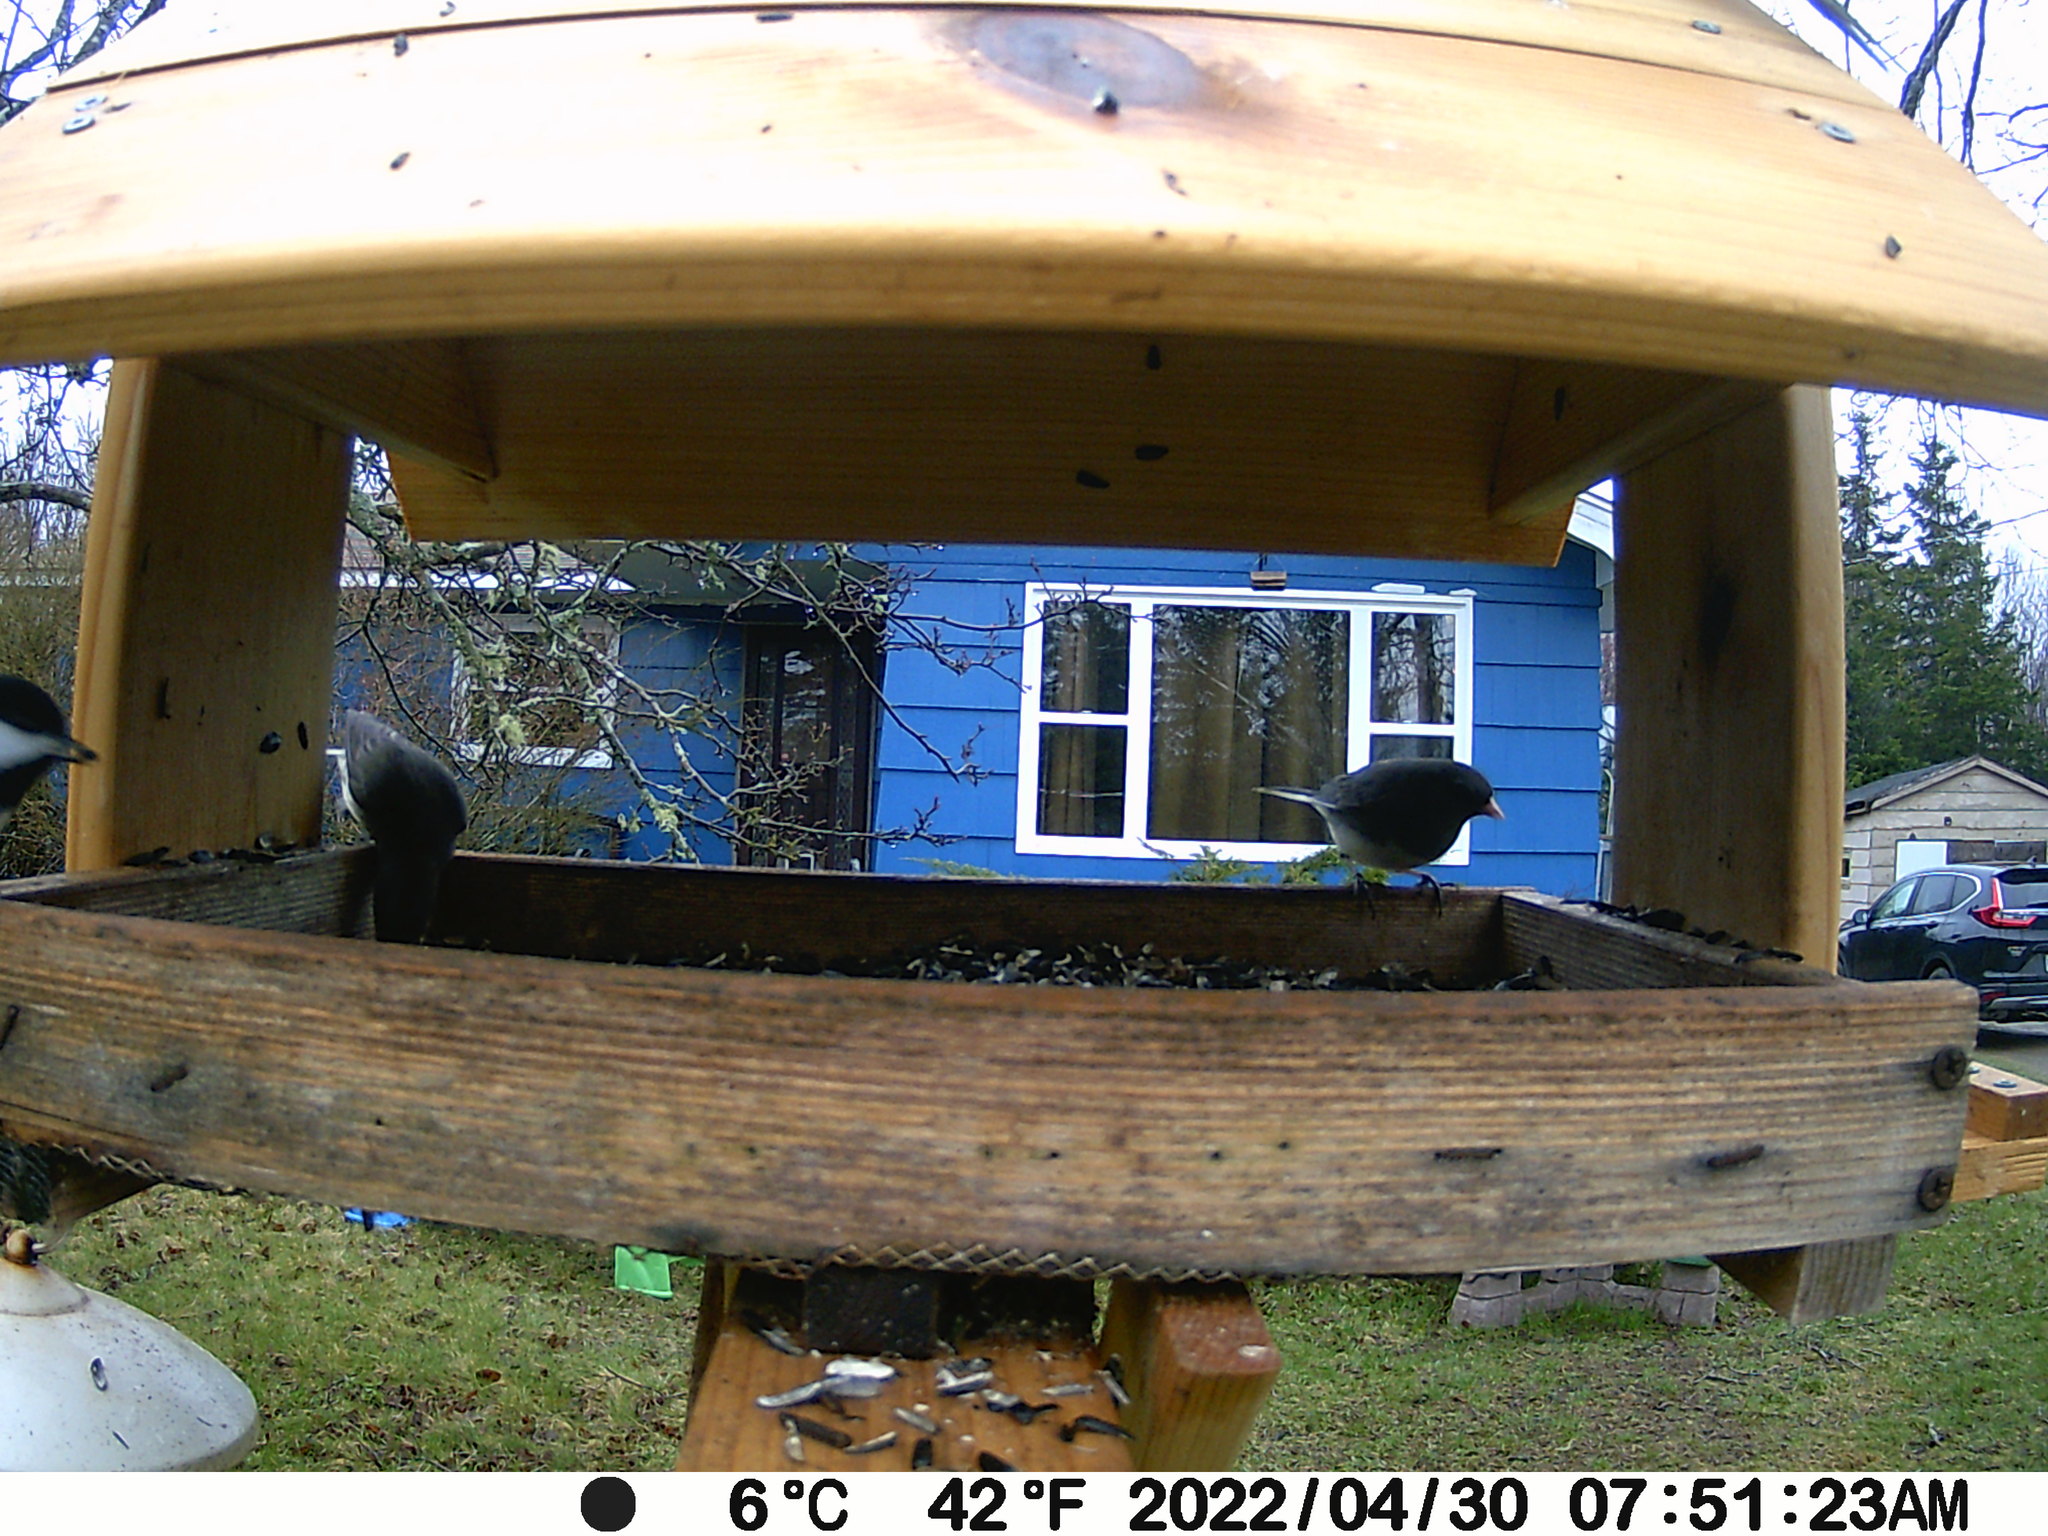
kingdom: Animalia
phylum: Chordata
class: Aves
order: Passeriformes
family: Passerellidae
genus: Junco
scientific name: Junco hyemalis
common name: Dark-eyed junco
